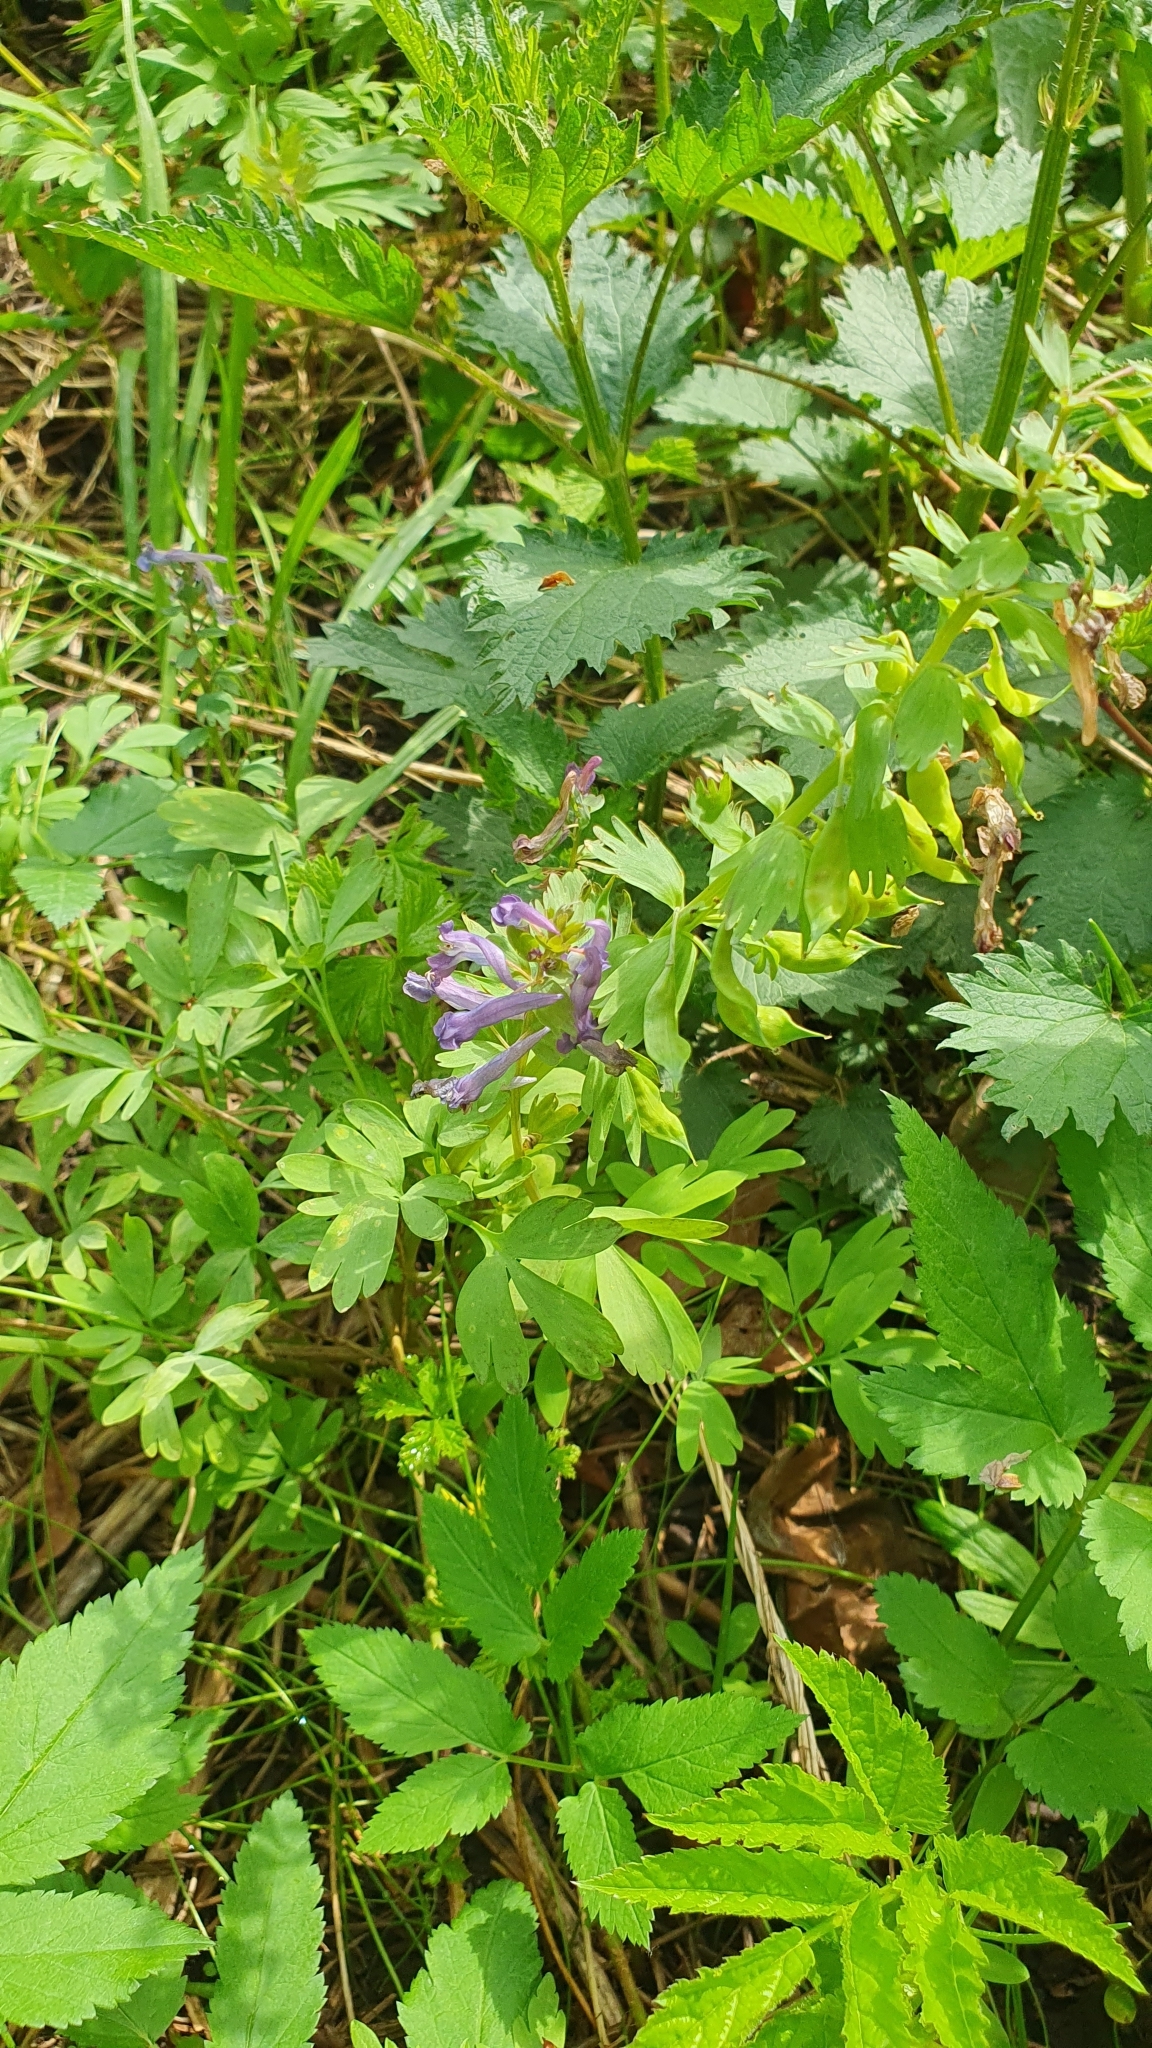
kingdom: Plantae
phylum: Tracheophyta
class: Magnoliopsida
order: Ranunculales
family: Papaveraceae
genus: Corydalis
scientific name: Corydalis solida
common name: Bird-in-a-bush
